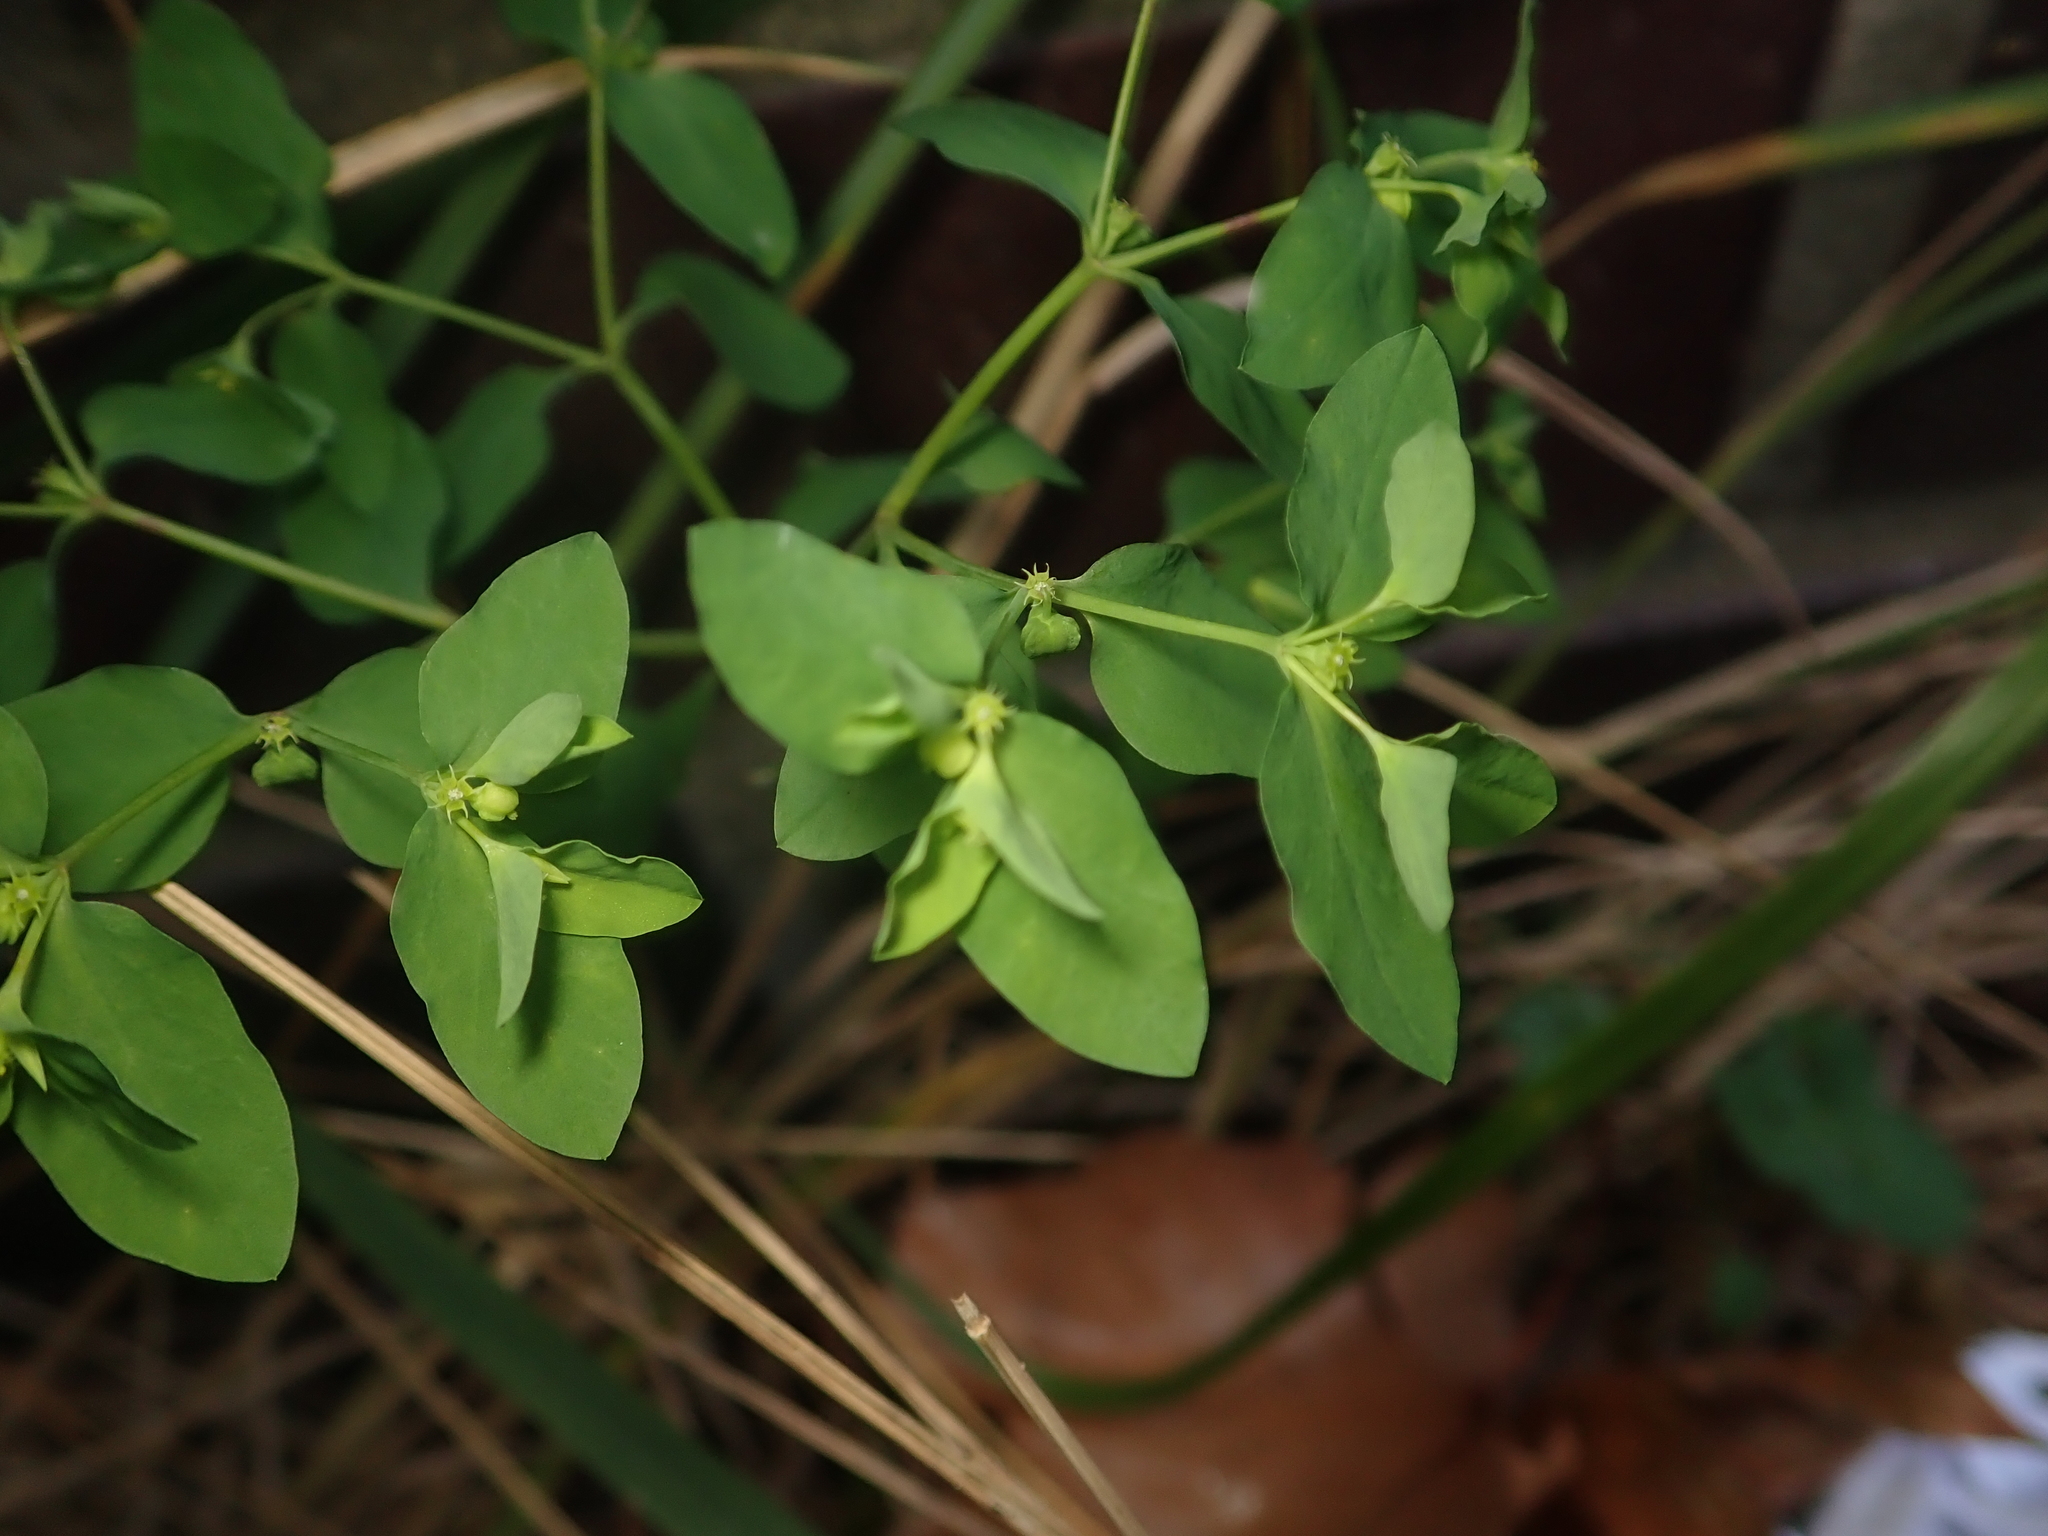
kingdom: Plantae
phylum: Tracheophyta
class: Magnoliopsida
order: Malpighiales
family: Euphorbiaceae
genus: Euphorbia
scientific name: Euphorbia peplus
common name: Petty spurge
